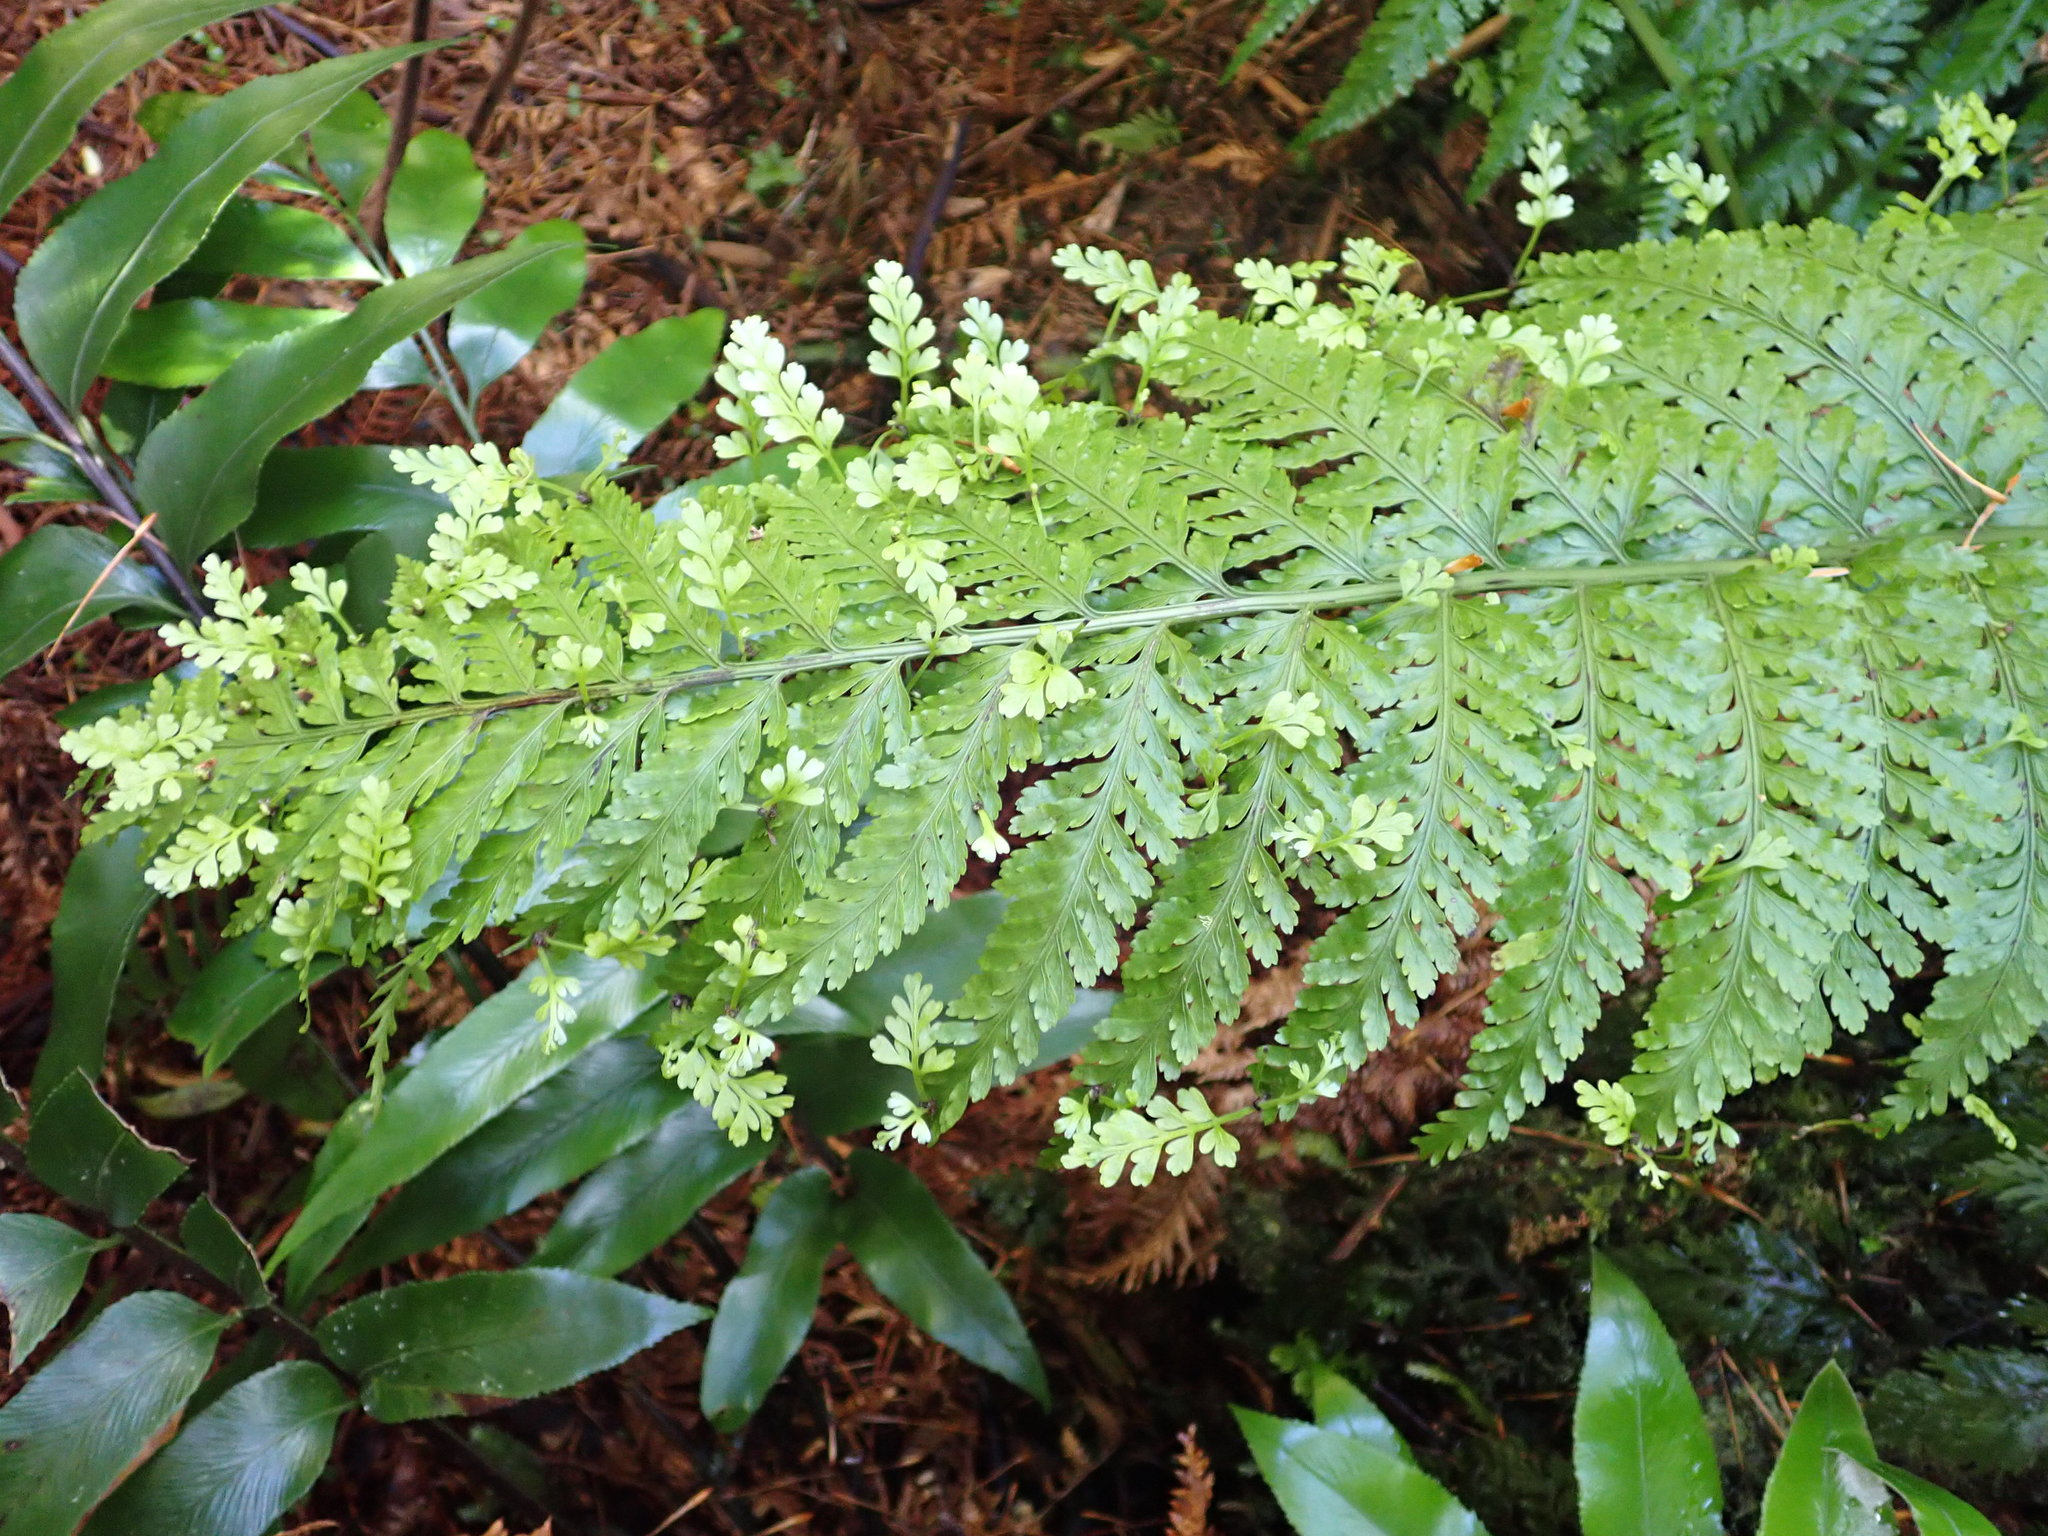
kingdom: Plantae
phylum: Tracheophyta
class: Polypodiopsida
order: Polypodiales
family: Aspleniaceae
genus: Asplenium
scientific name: Asplenium bulbiferum
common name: Mother fern
